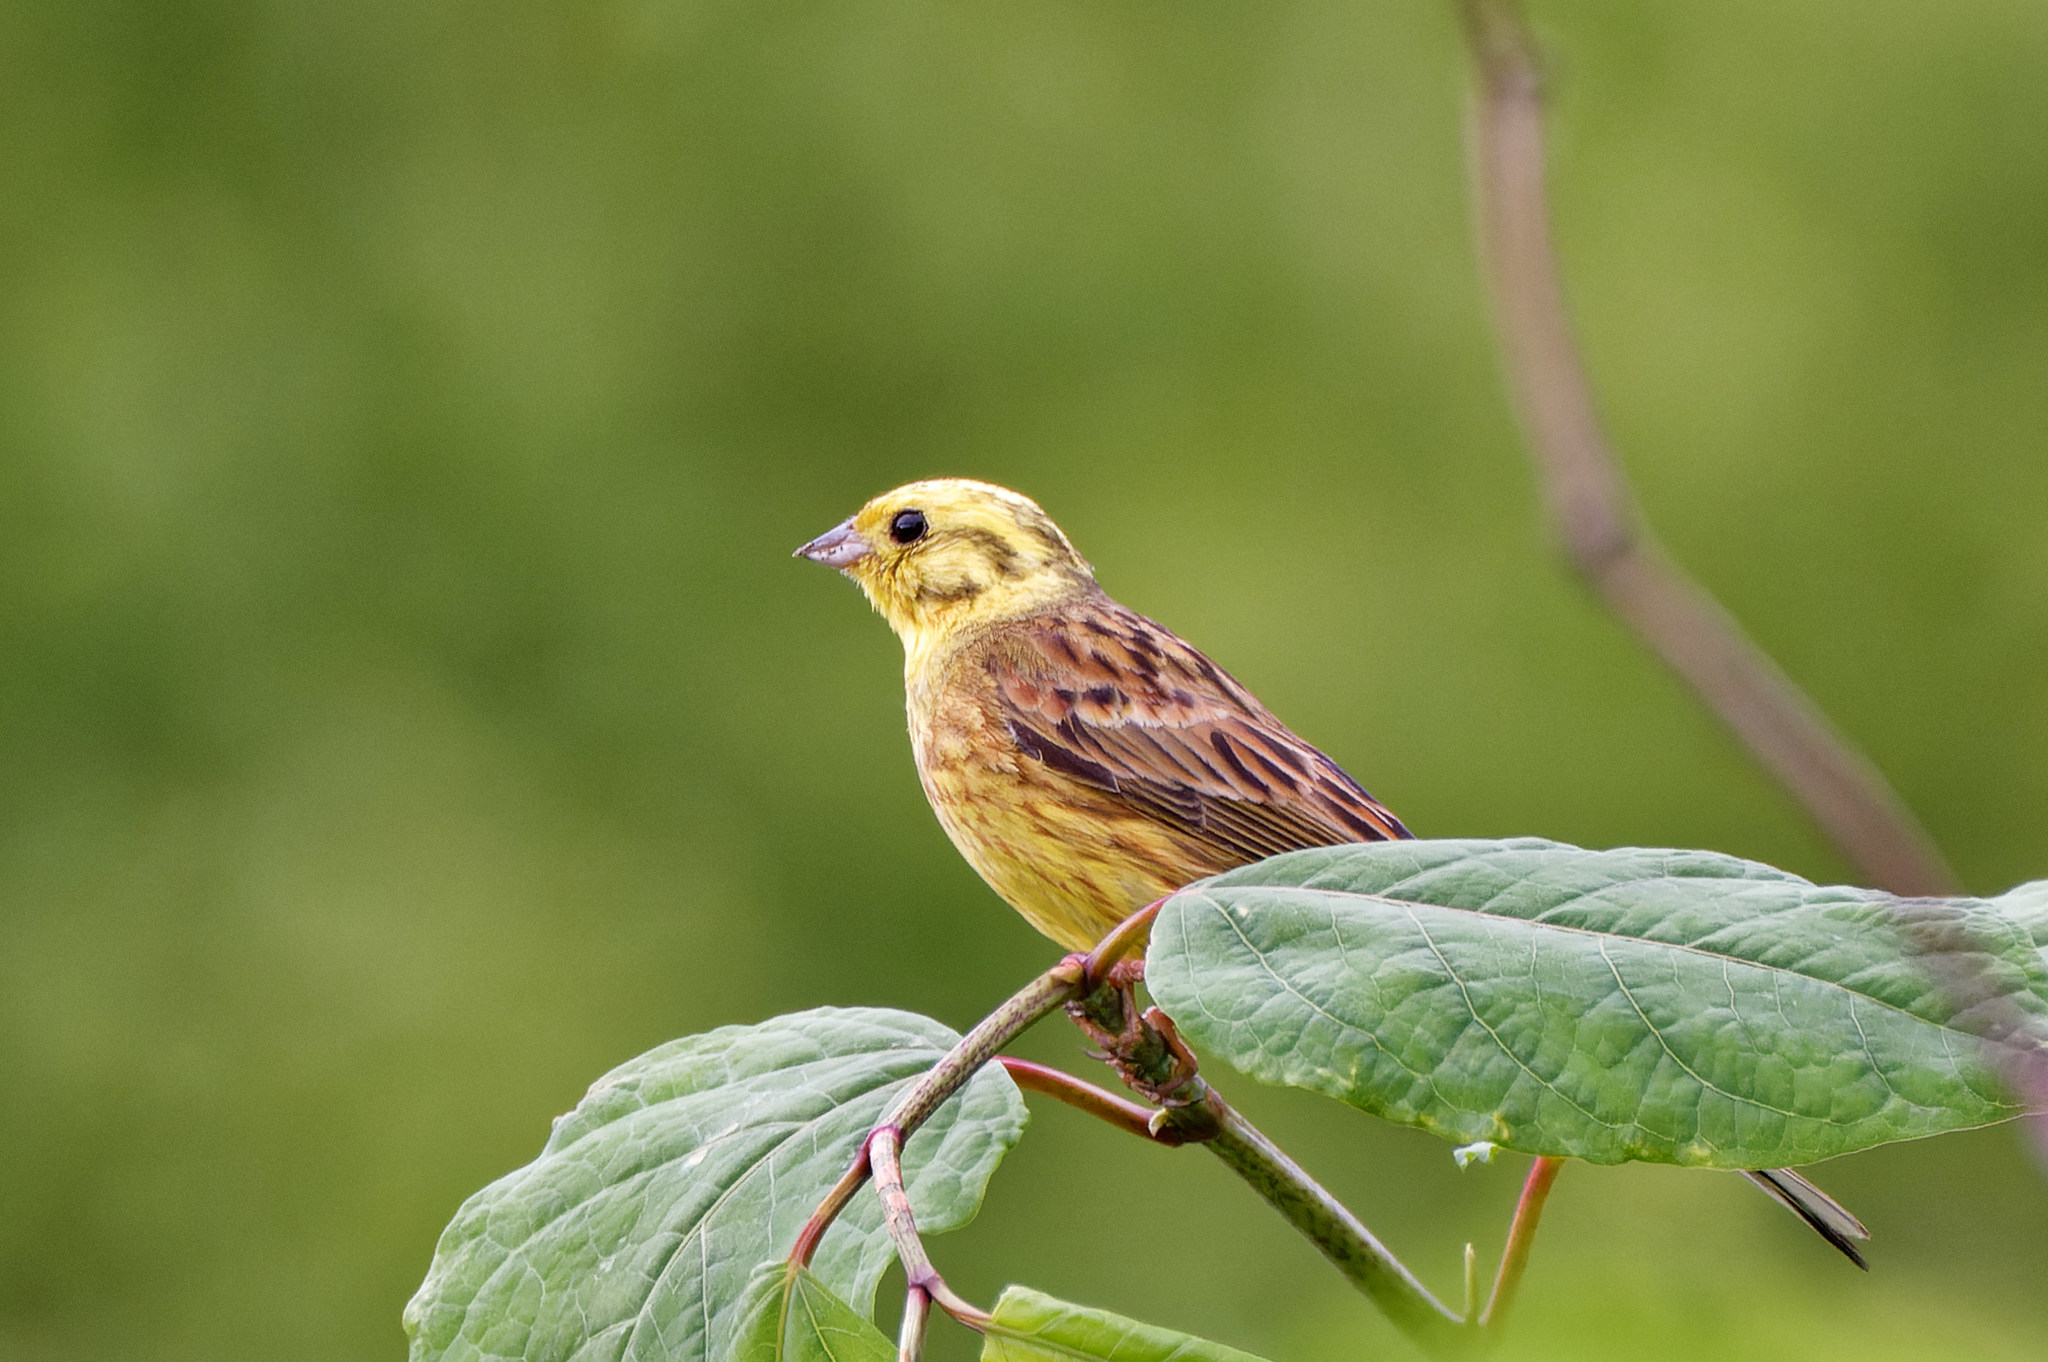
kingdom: Animalia
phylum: Chordata
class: Aves
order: Passeriformes
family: Emberizidae
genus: Emberiza
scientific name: Emberiza citrinella
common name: Yellowhammer
